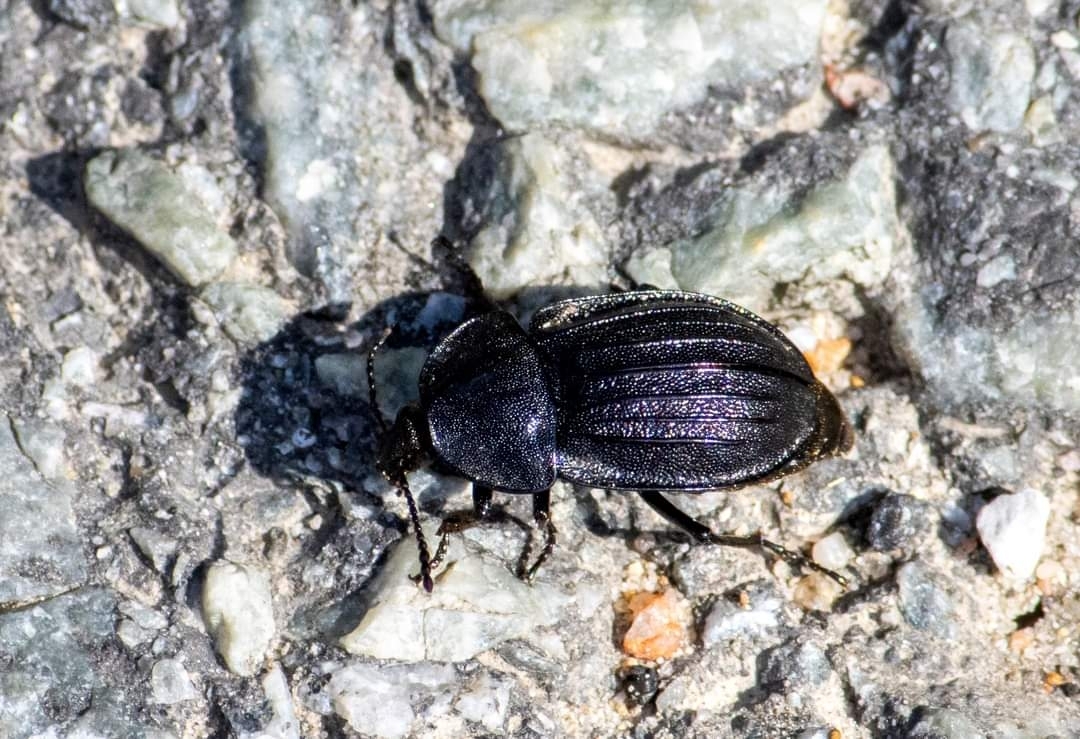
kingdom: Animalia
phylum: Arthropoda
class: Insecta
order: Coleoptera
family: Staphylinidae
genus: Silpha
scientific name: Silpha atrata
